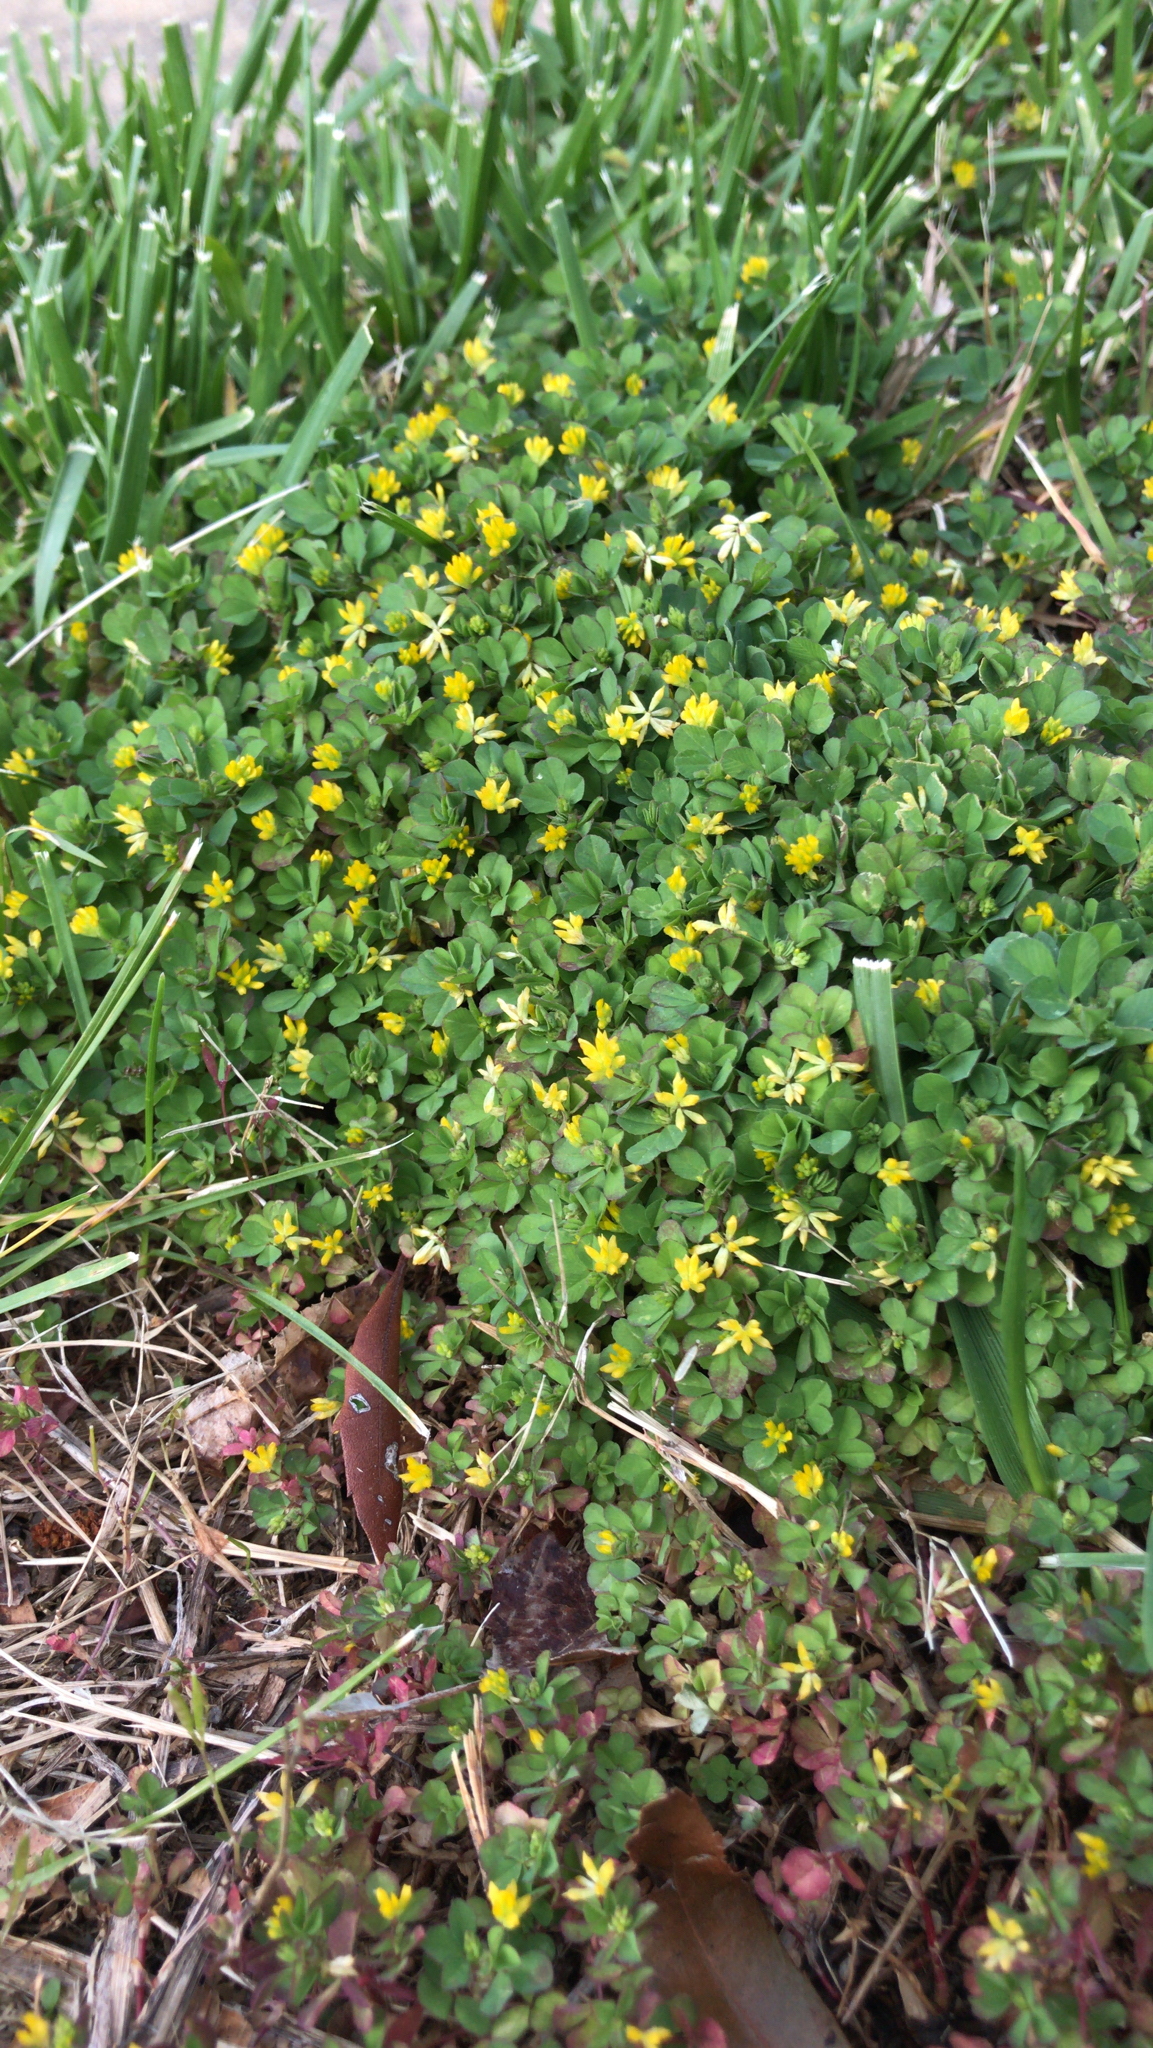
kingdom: Plantae
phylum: Tracheophyta
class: Magnoliopsida
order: Fabales
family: Fabaceae
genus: Trifolium
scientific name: Trifolium dubium
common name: Suckling clover
